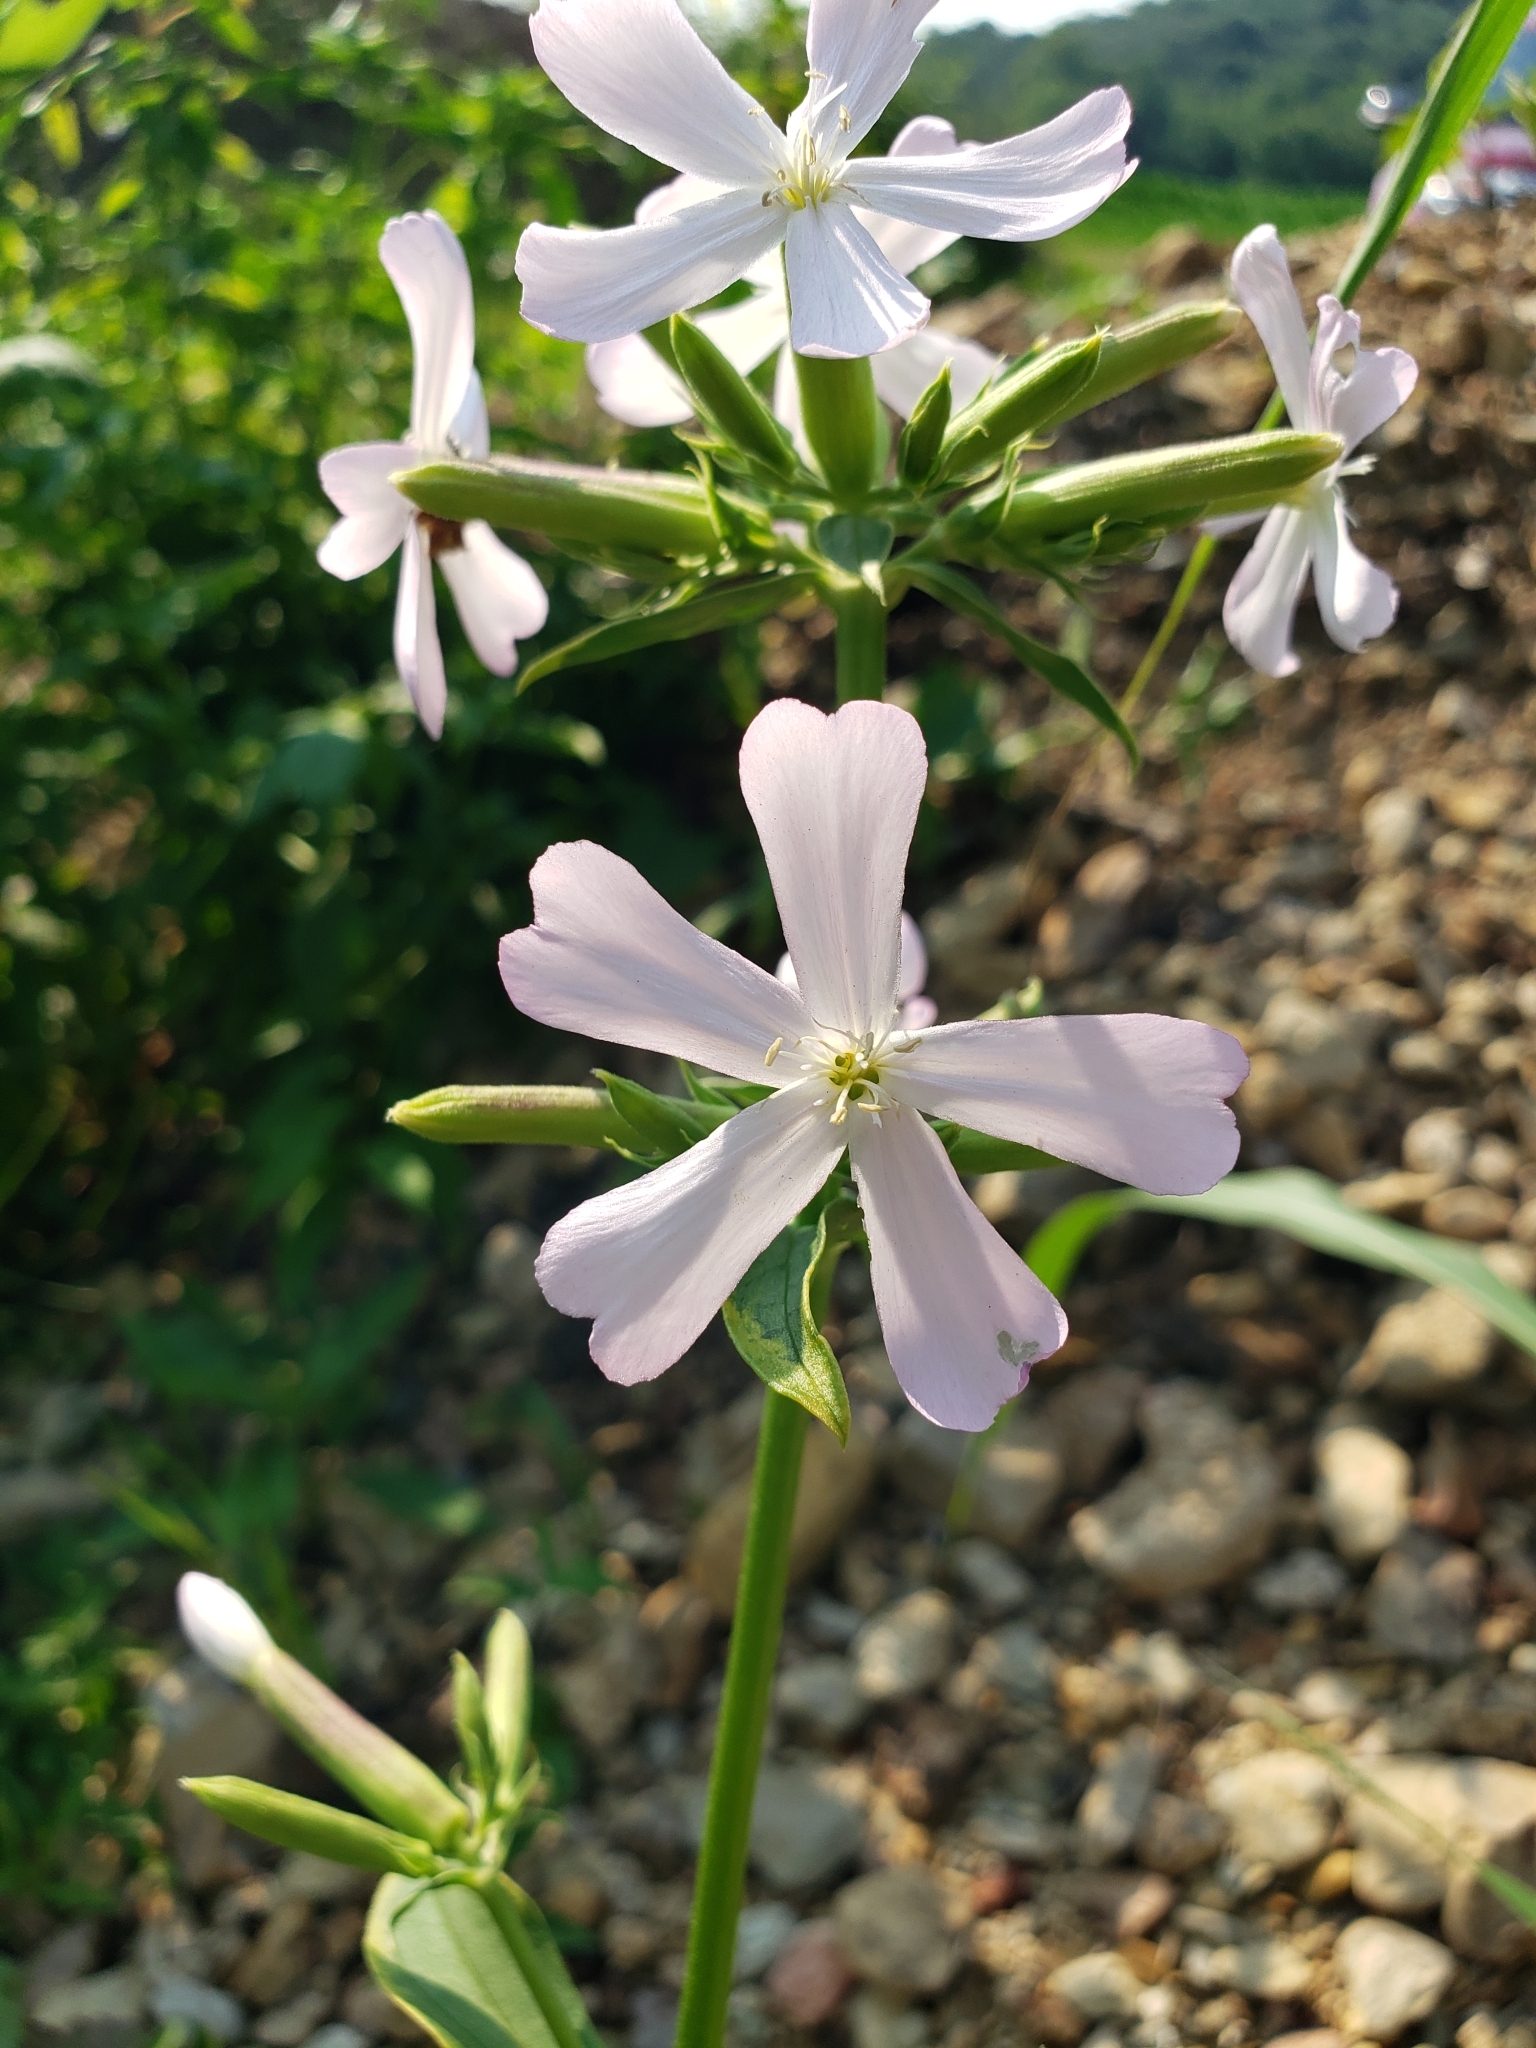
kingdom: Plantae
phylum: Tracheophyta
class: Magnoliopsida
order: Caryophyllales
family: Caryophyllaceae
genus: Saponaria
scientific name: Saponaria officinalis
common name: Soapwort
